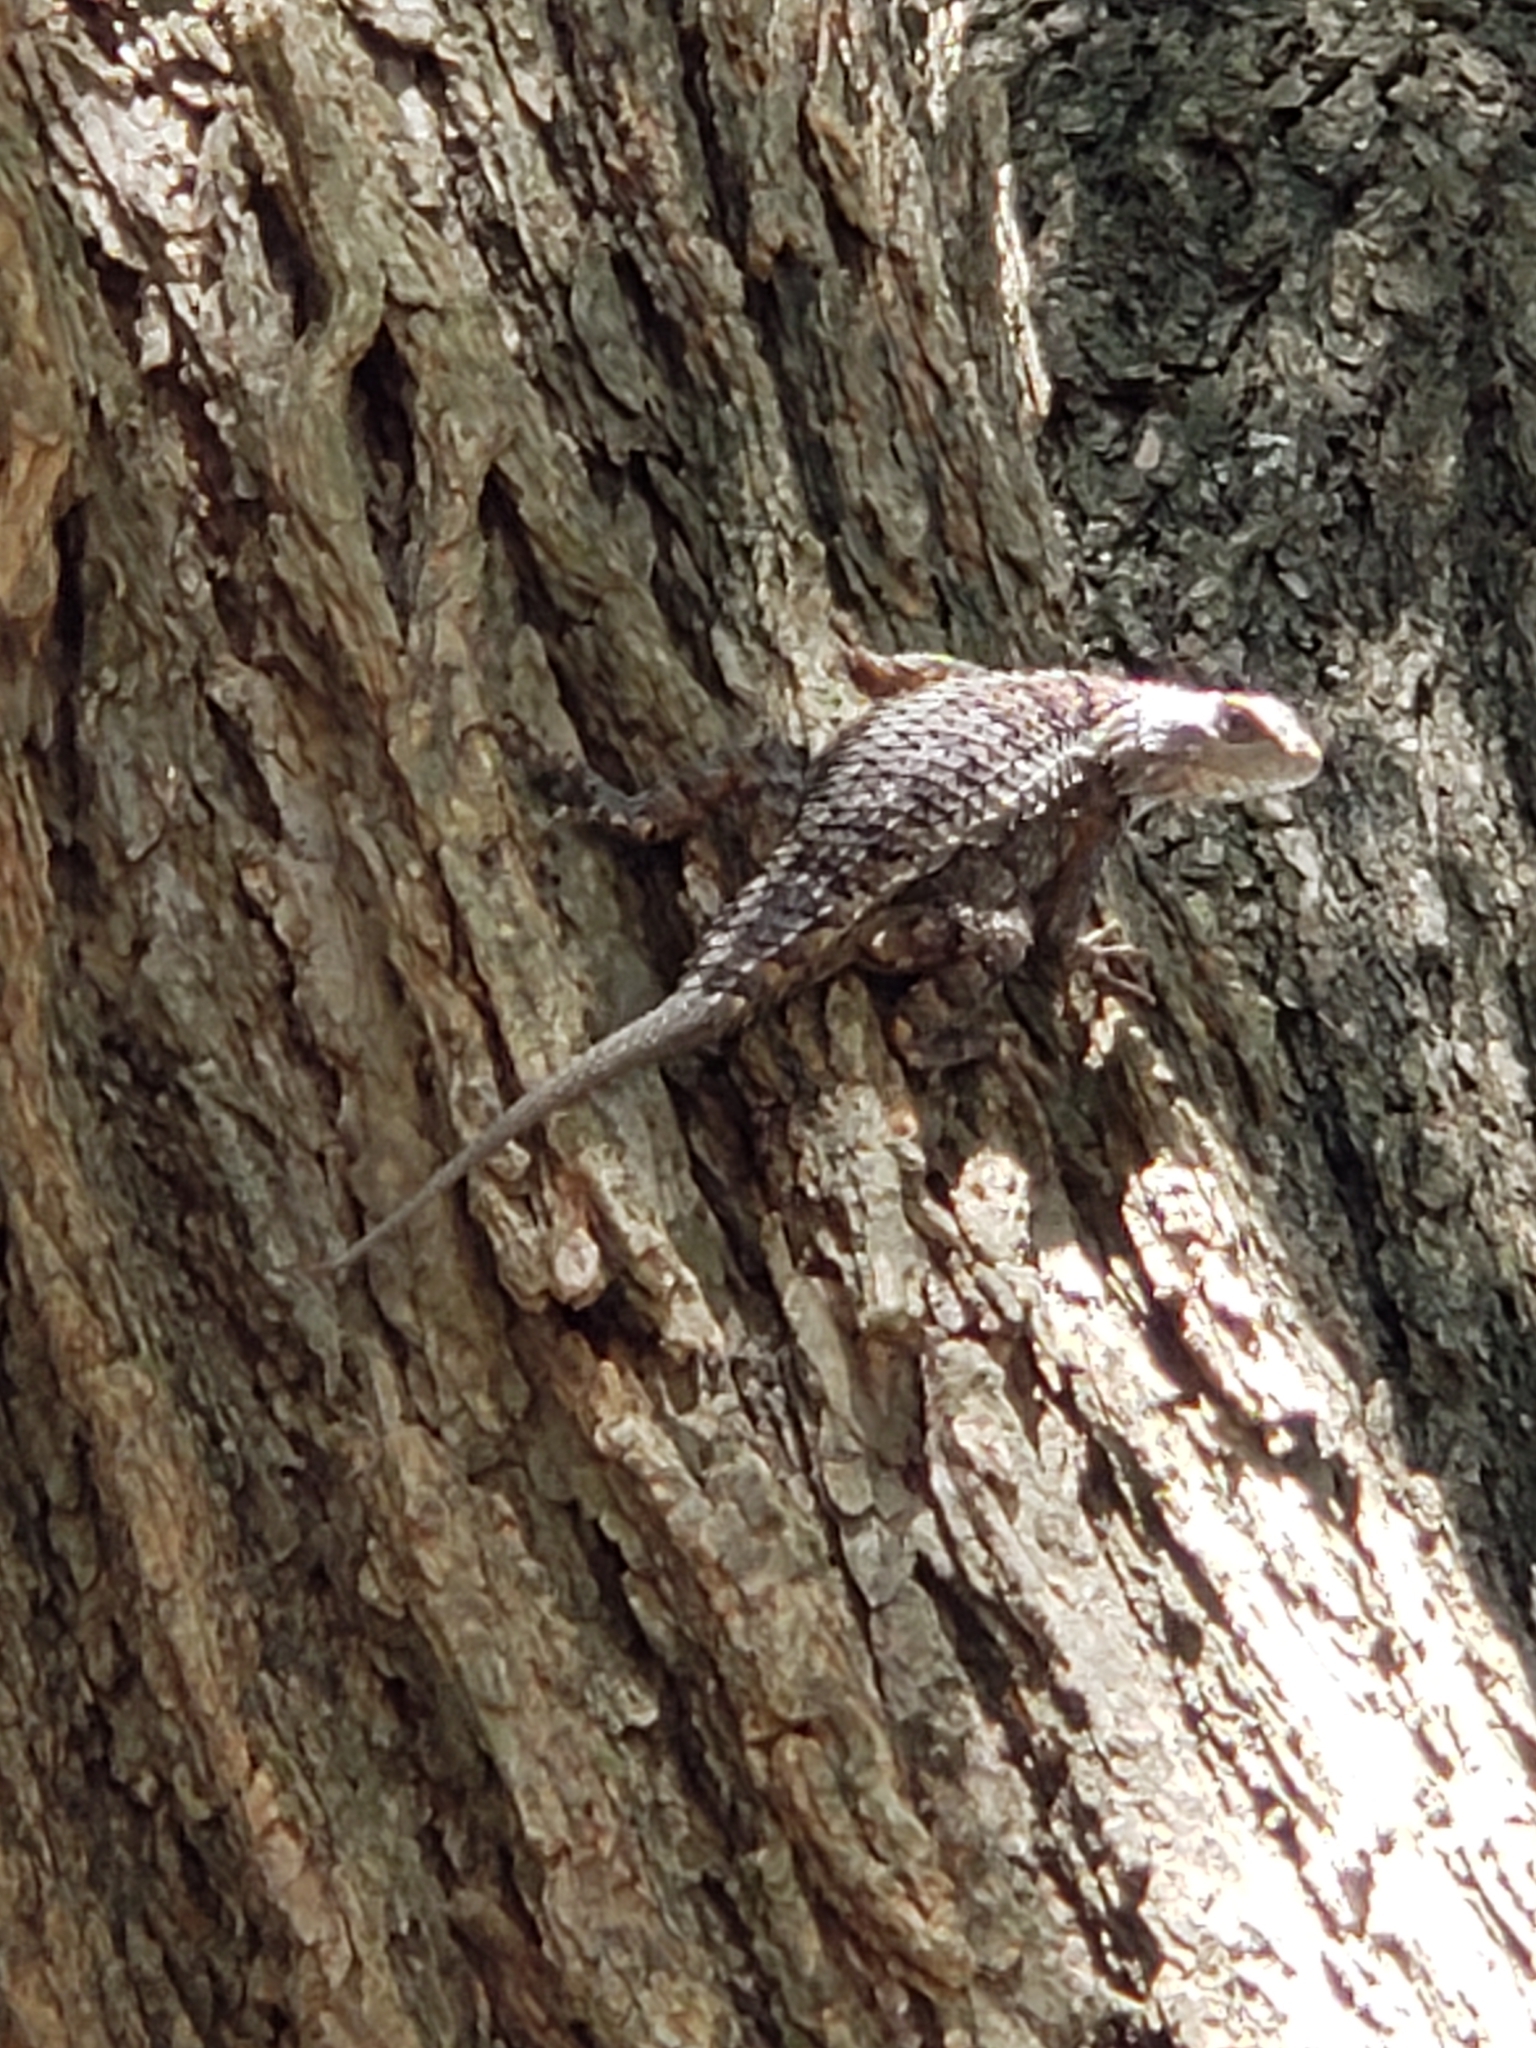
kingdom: Animalia
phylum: Chordata
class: Squamata
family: Phrynosomatidae
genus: Sceloporus
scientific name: Sceloporus olivaceus
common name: Texas spiny lizard
